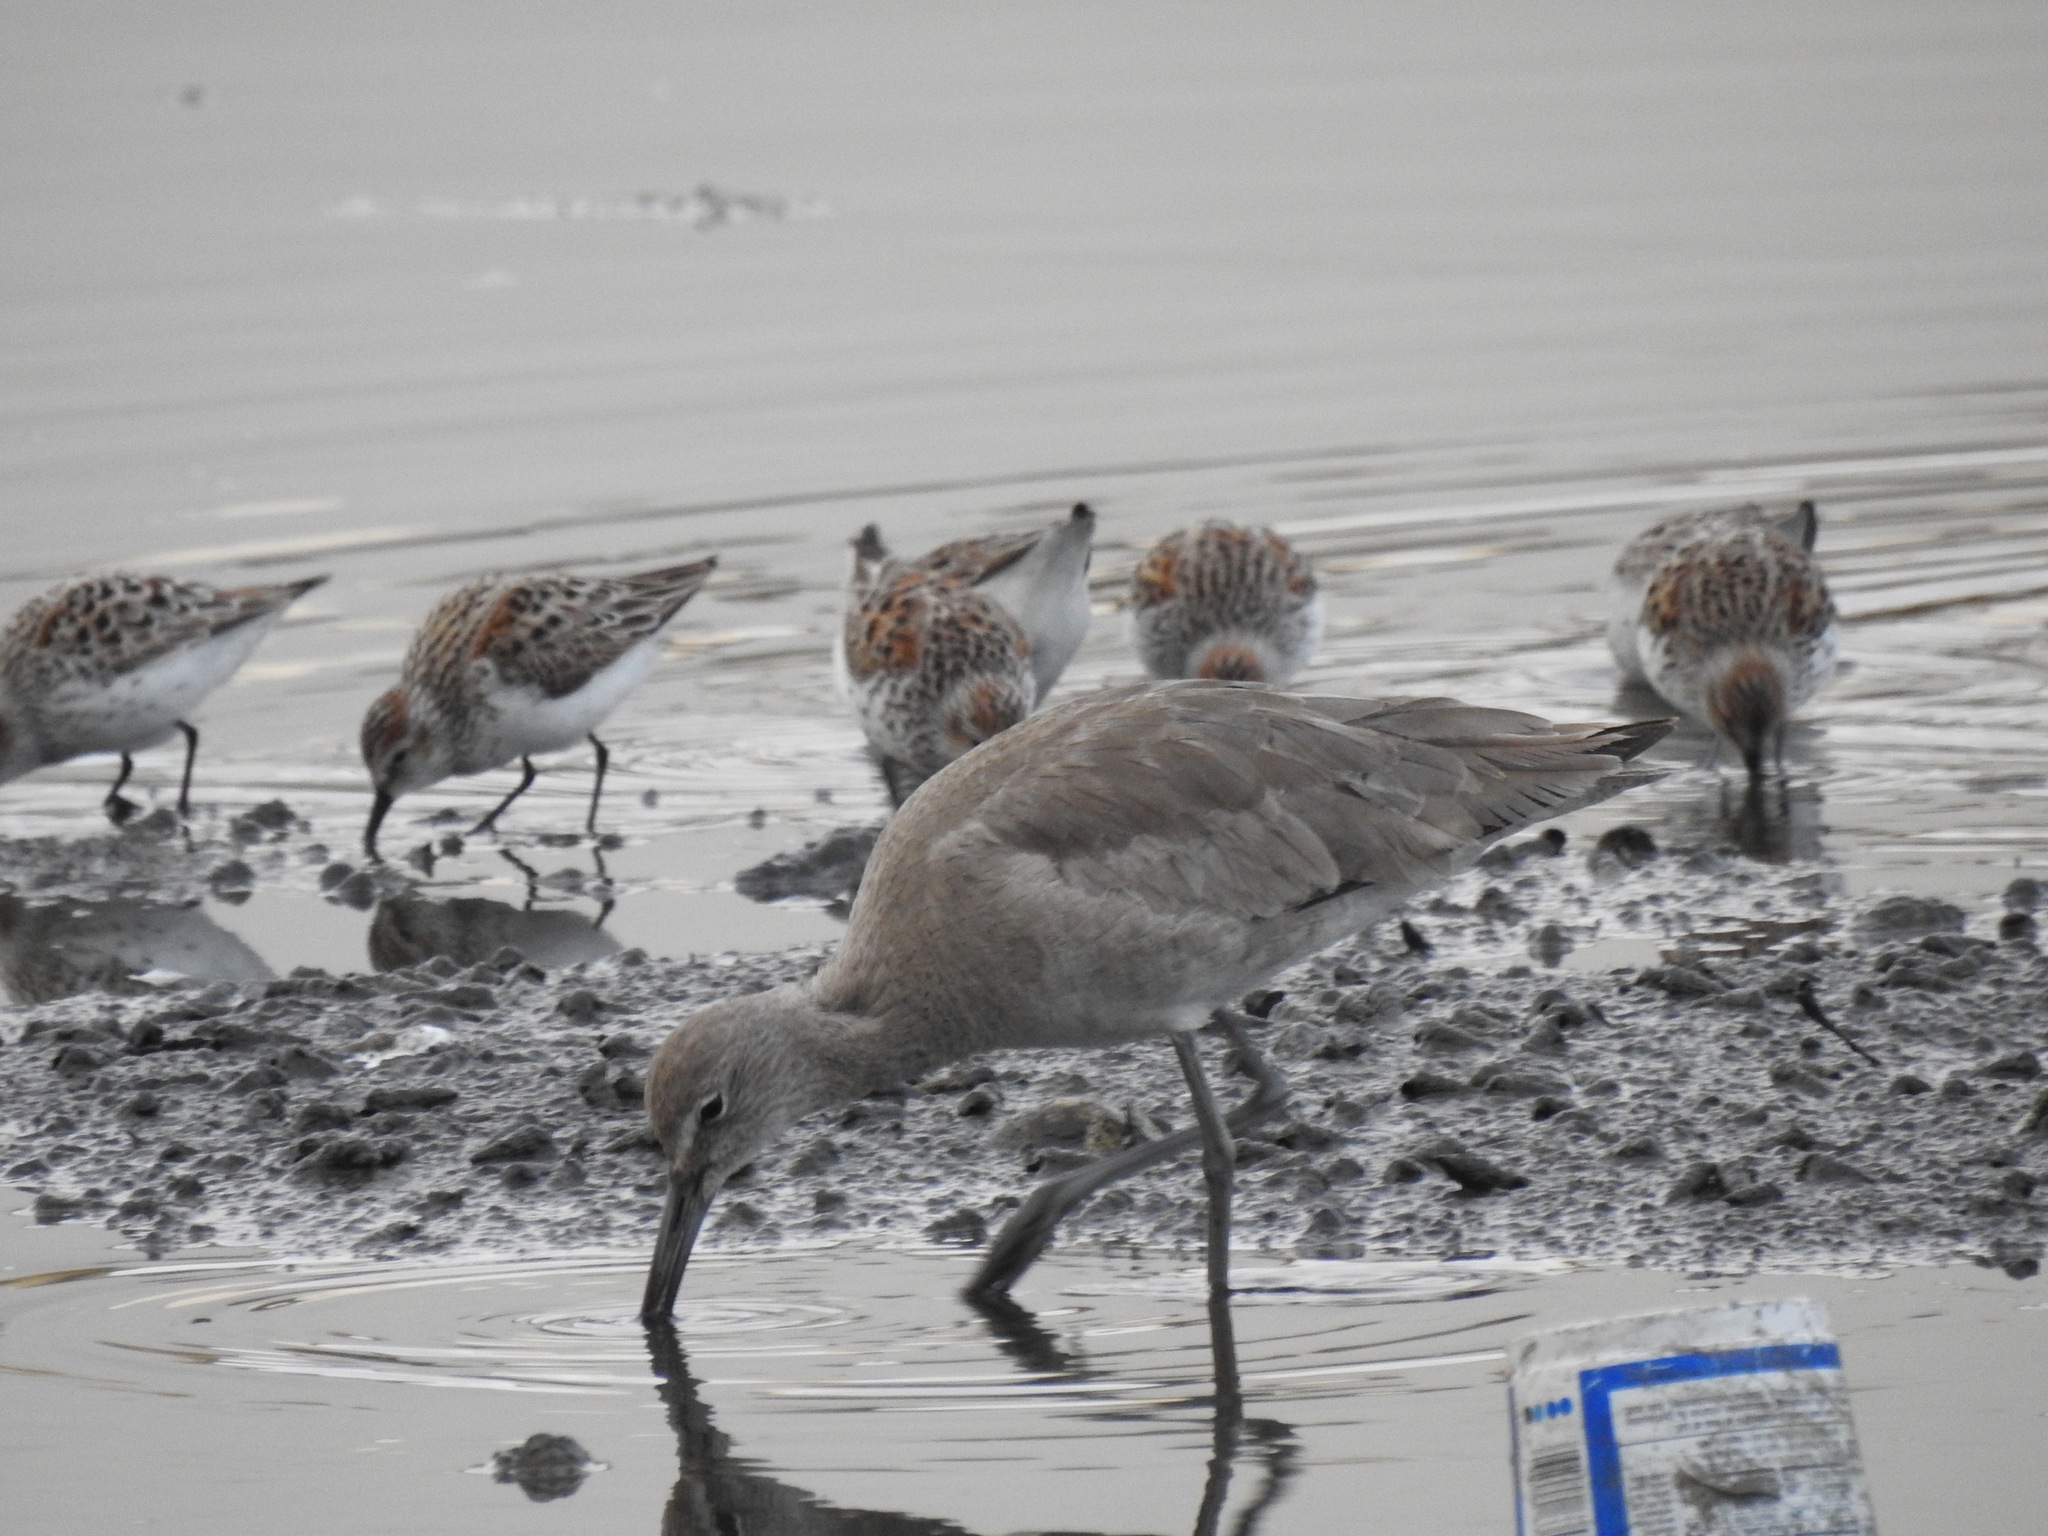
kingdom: Animalia
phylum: Chordata
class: Aves
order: Charadriiformes
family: Scolopacidae
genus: Tringa
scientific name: Tringa semipalmata
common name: Willet
